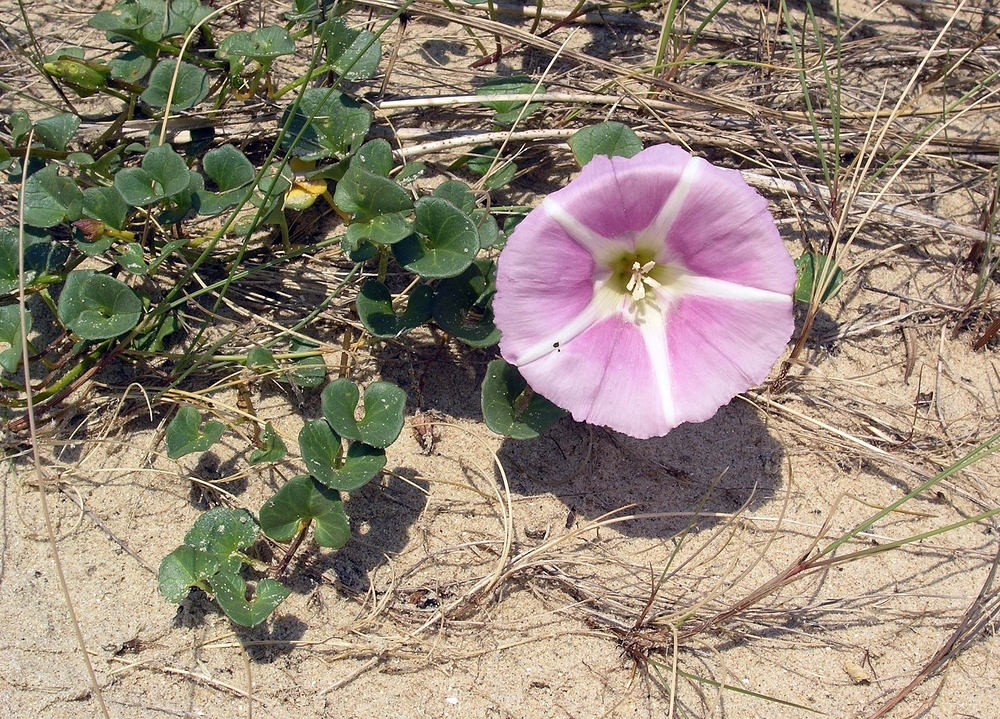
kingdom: Plantae
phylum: Tracheophyta
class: Magnoliopsida
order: Solanales
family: Convolvulaceae
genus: Calystegia
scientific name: Calystegia soldanella
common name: Sea bindweed
